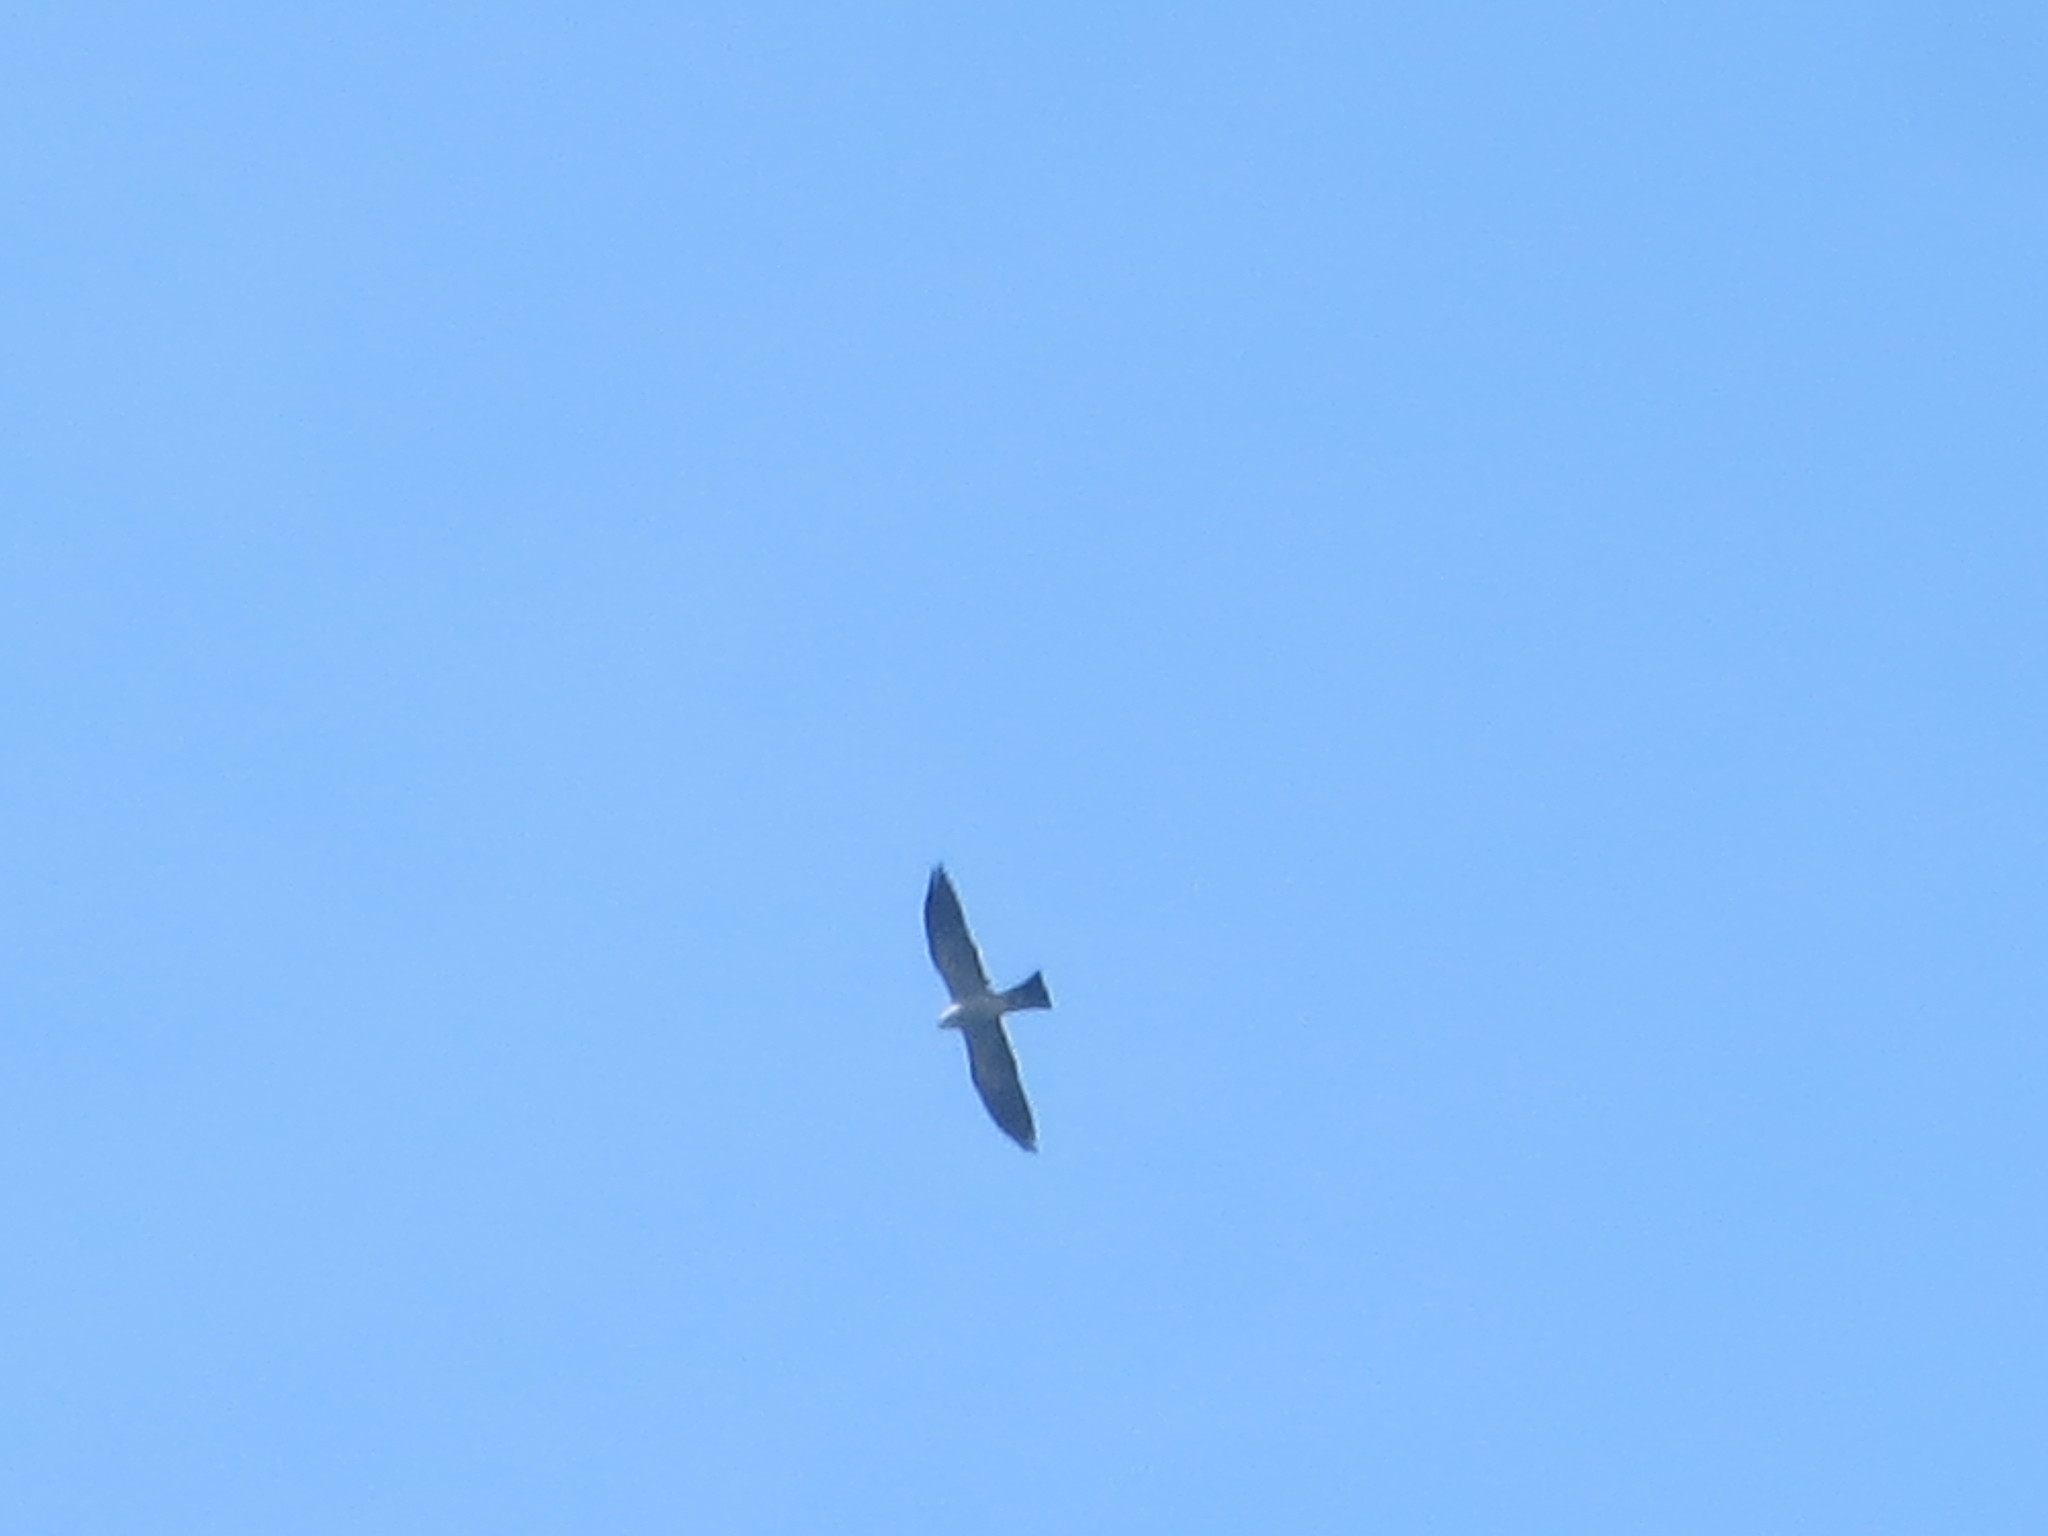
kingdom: Animalia
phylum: Chordata
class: Aves
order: Accipitriformes
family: Accipitridae
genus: Ictinia
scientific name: Ictinia mississippiensis
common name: Mississippi kite
